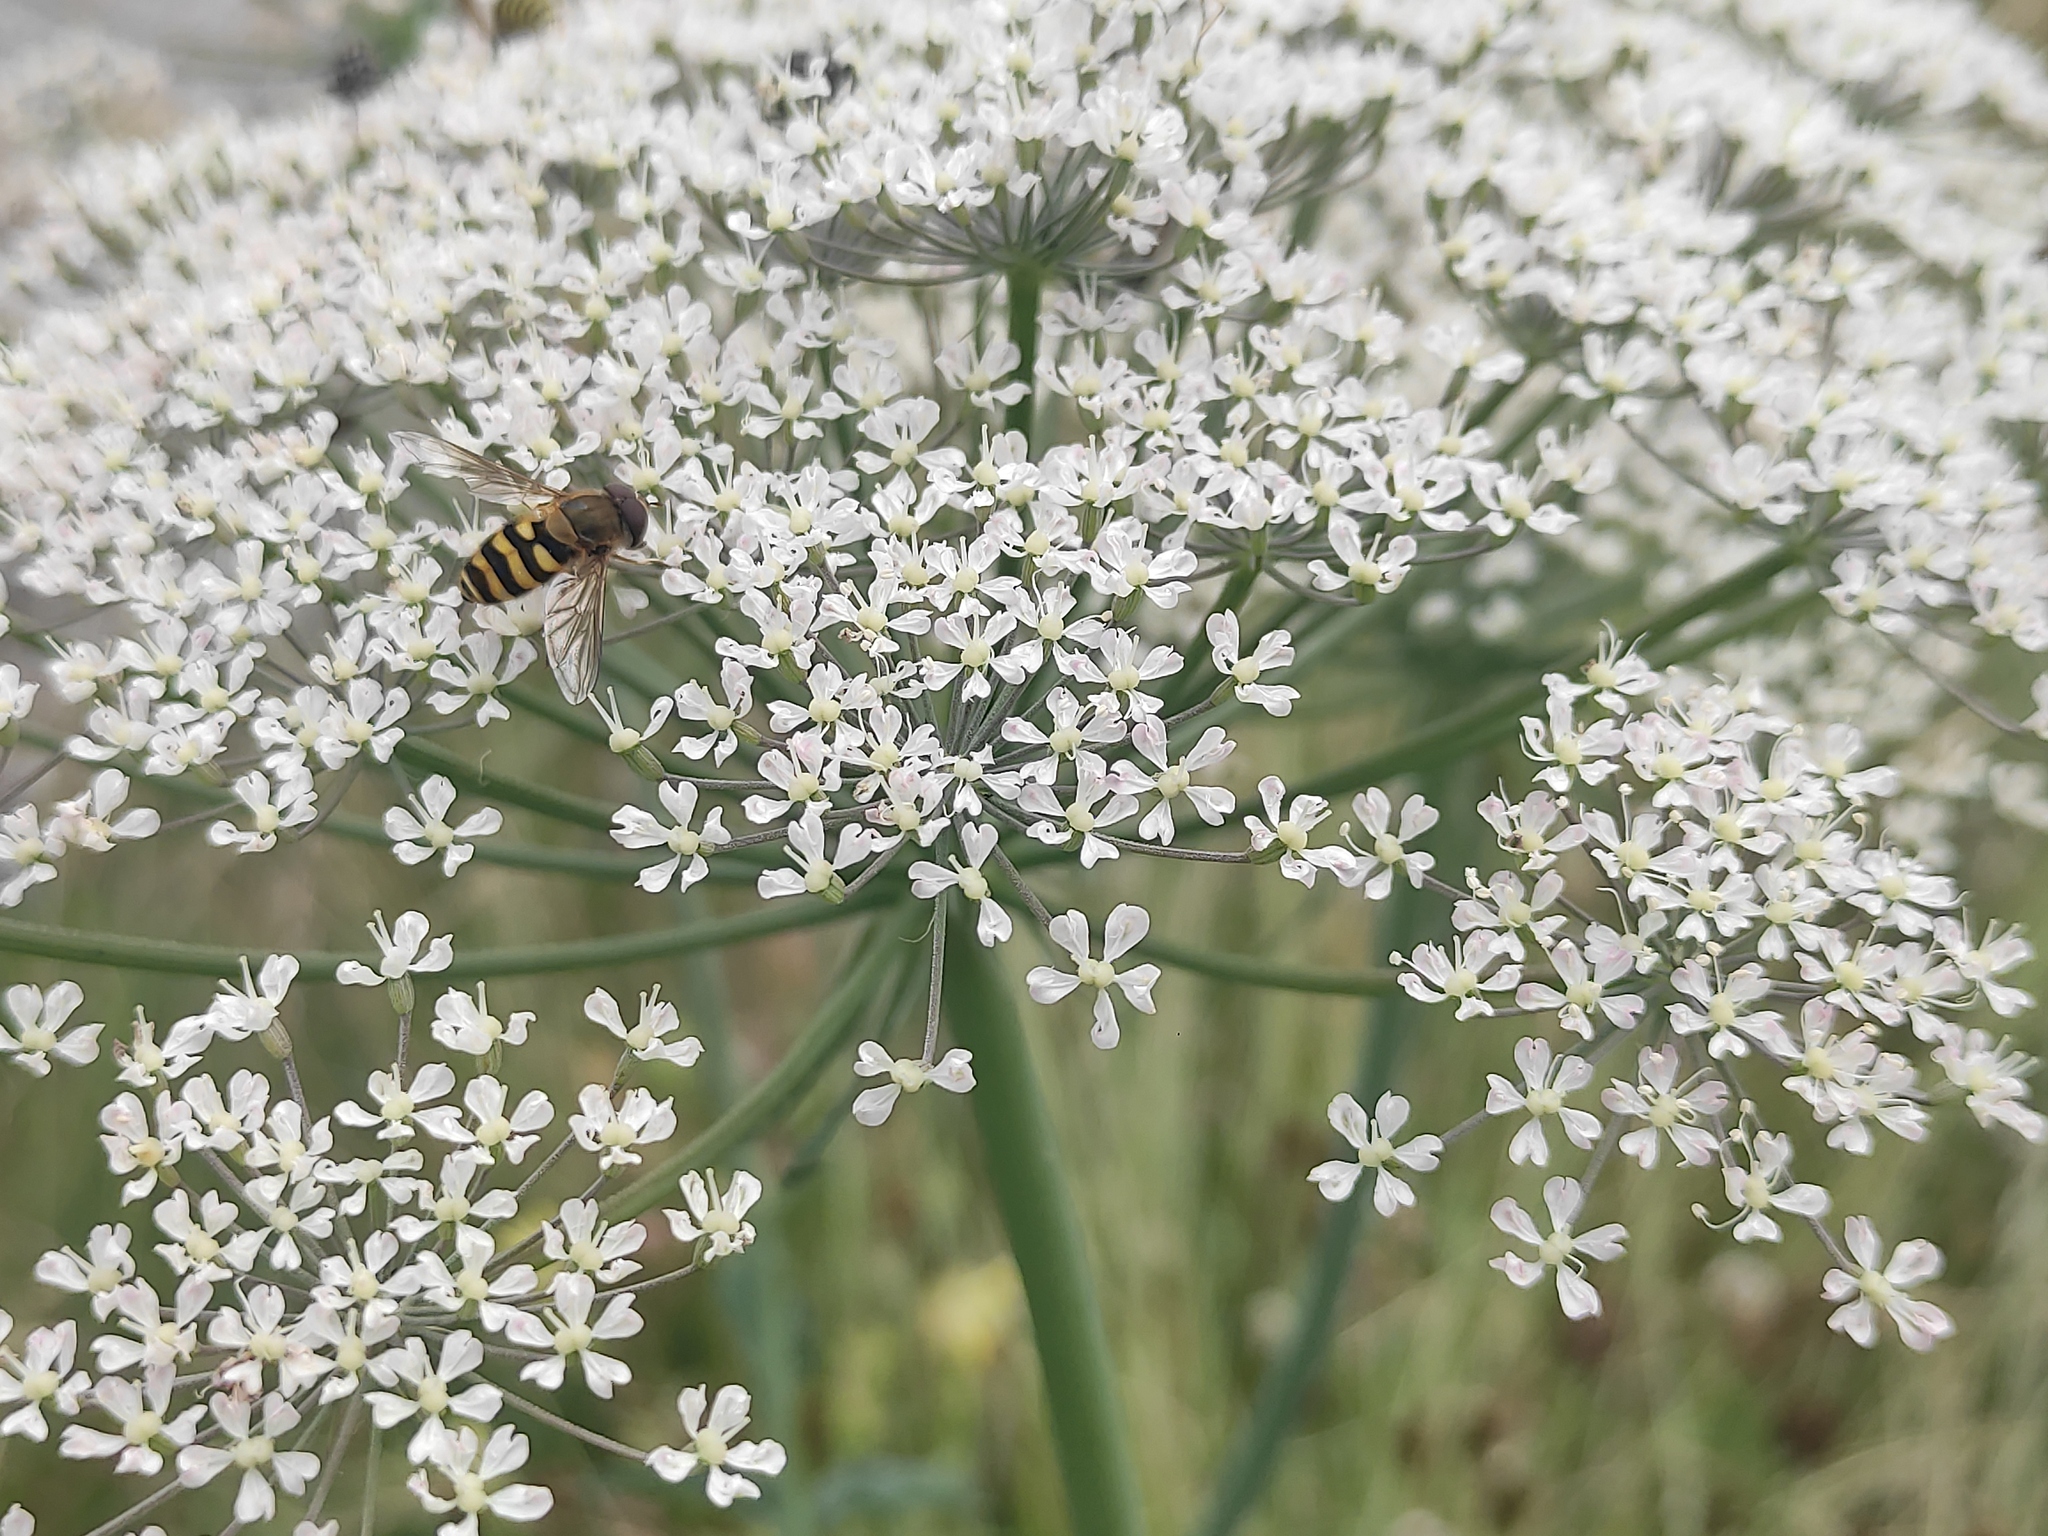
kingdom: Plantae
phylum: Tracheophyta
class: Magnoliopsida
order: Apiales
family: Apiaceae
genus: Laserpitium
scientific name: Laserpitium latifolium
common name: Broadleaf sermountain
